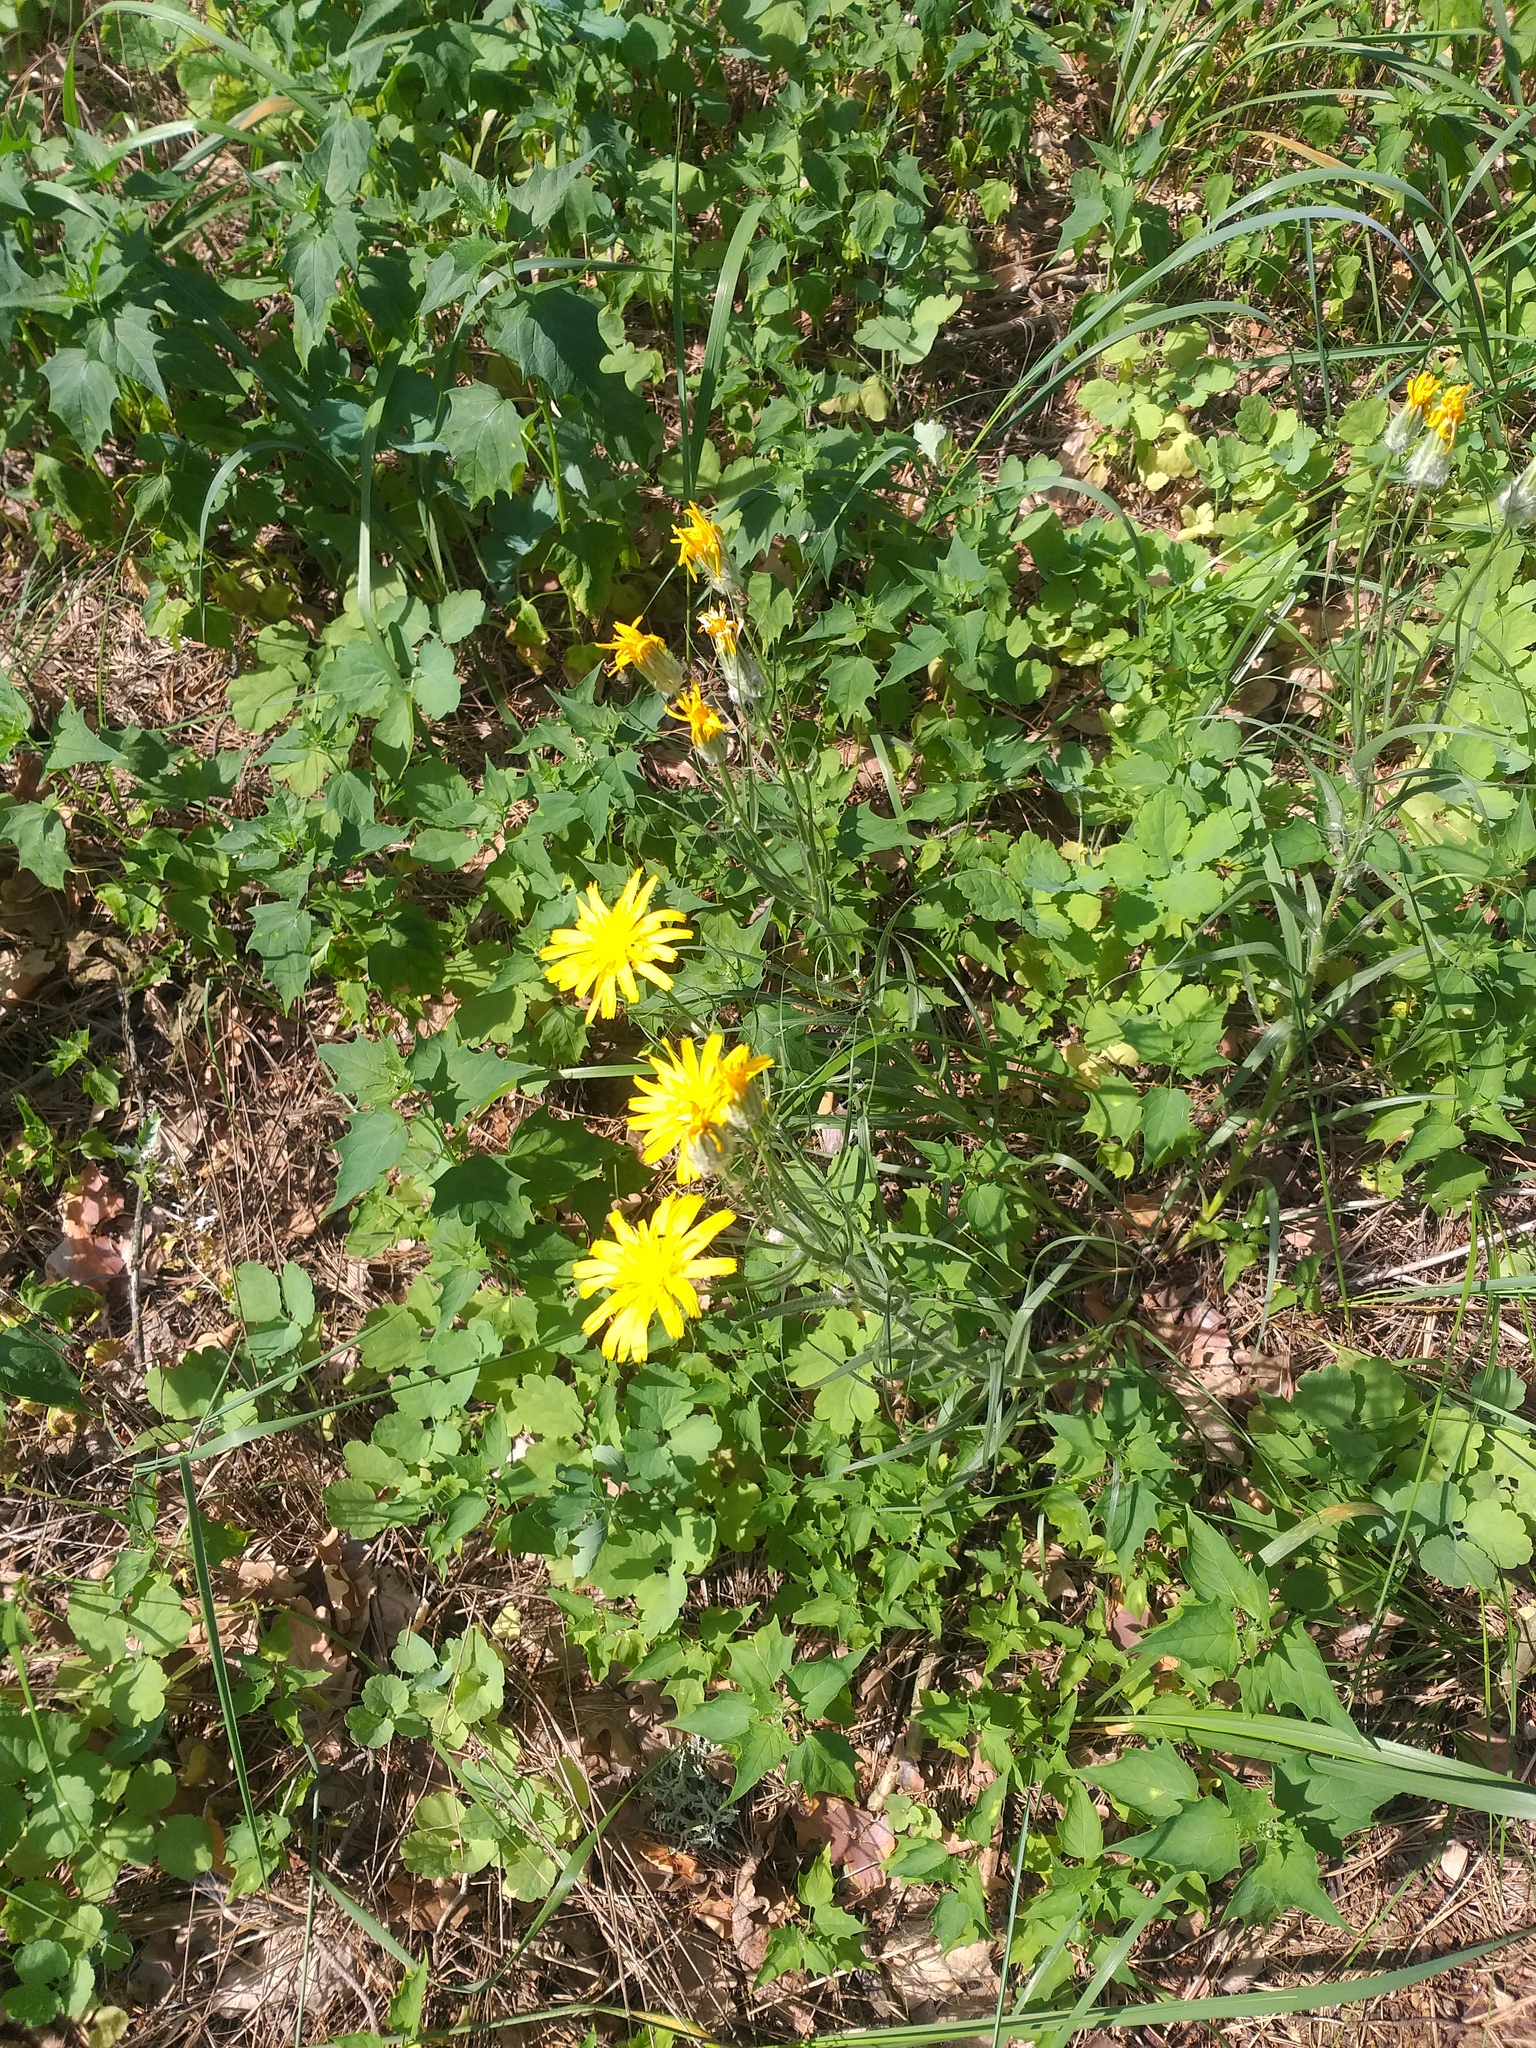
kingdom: Plantae
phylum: Tracheophyta
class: Magnoliopsida
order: Asterales
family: Asteraceae
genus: Gelasia
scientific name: Gelasia ensifolia
